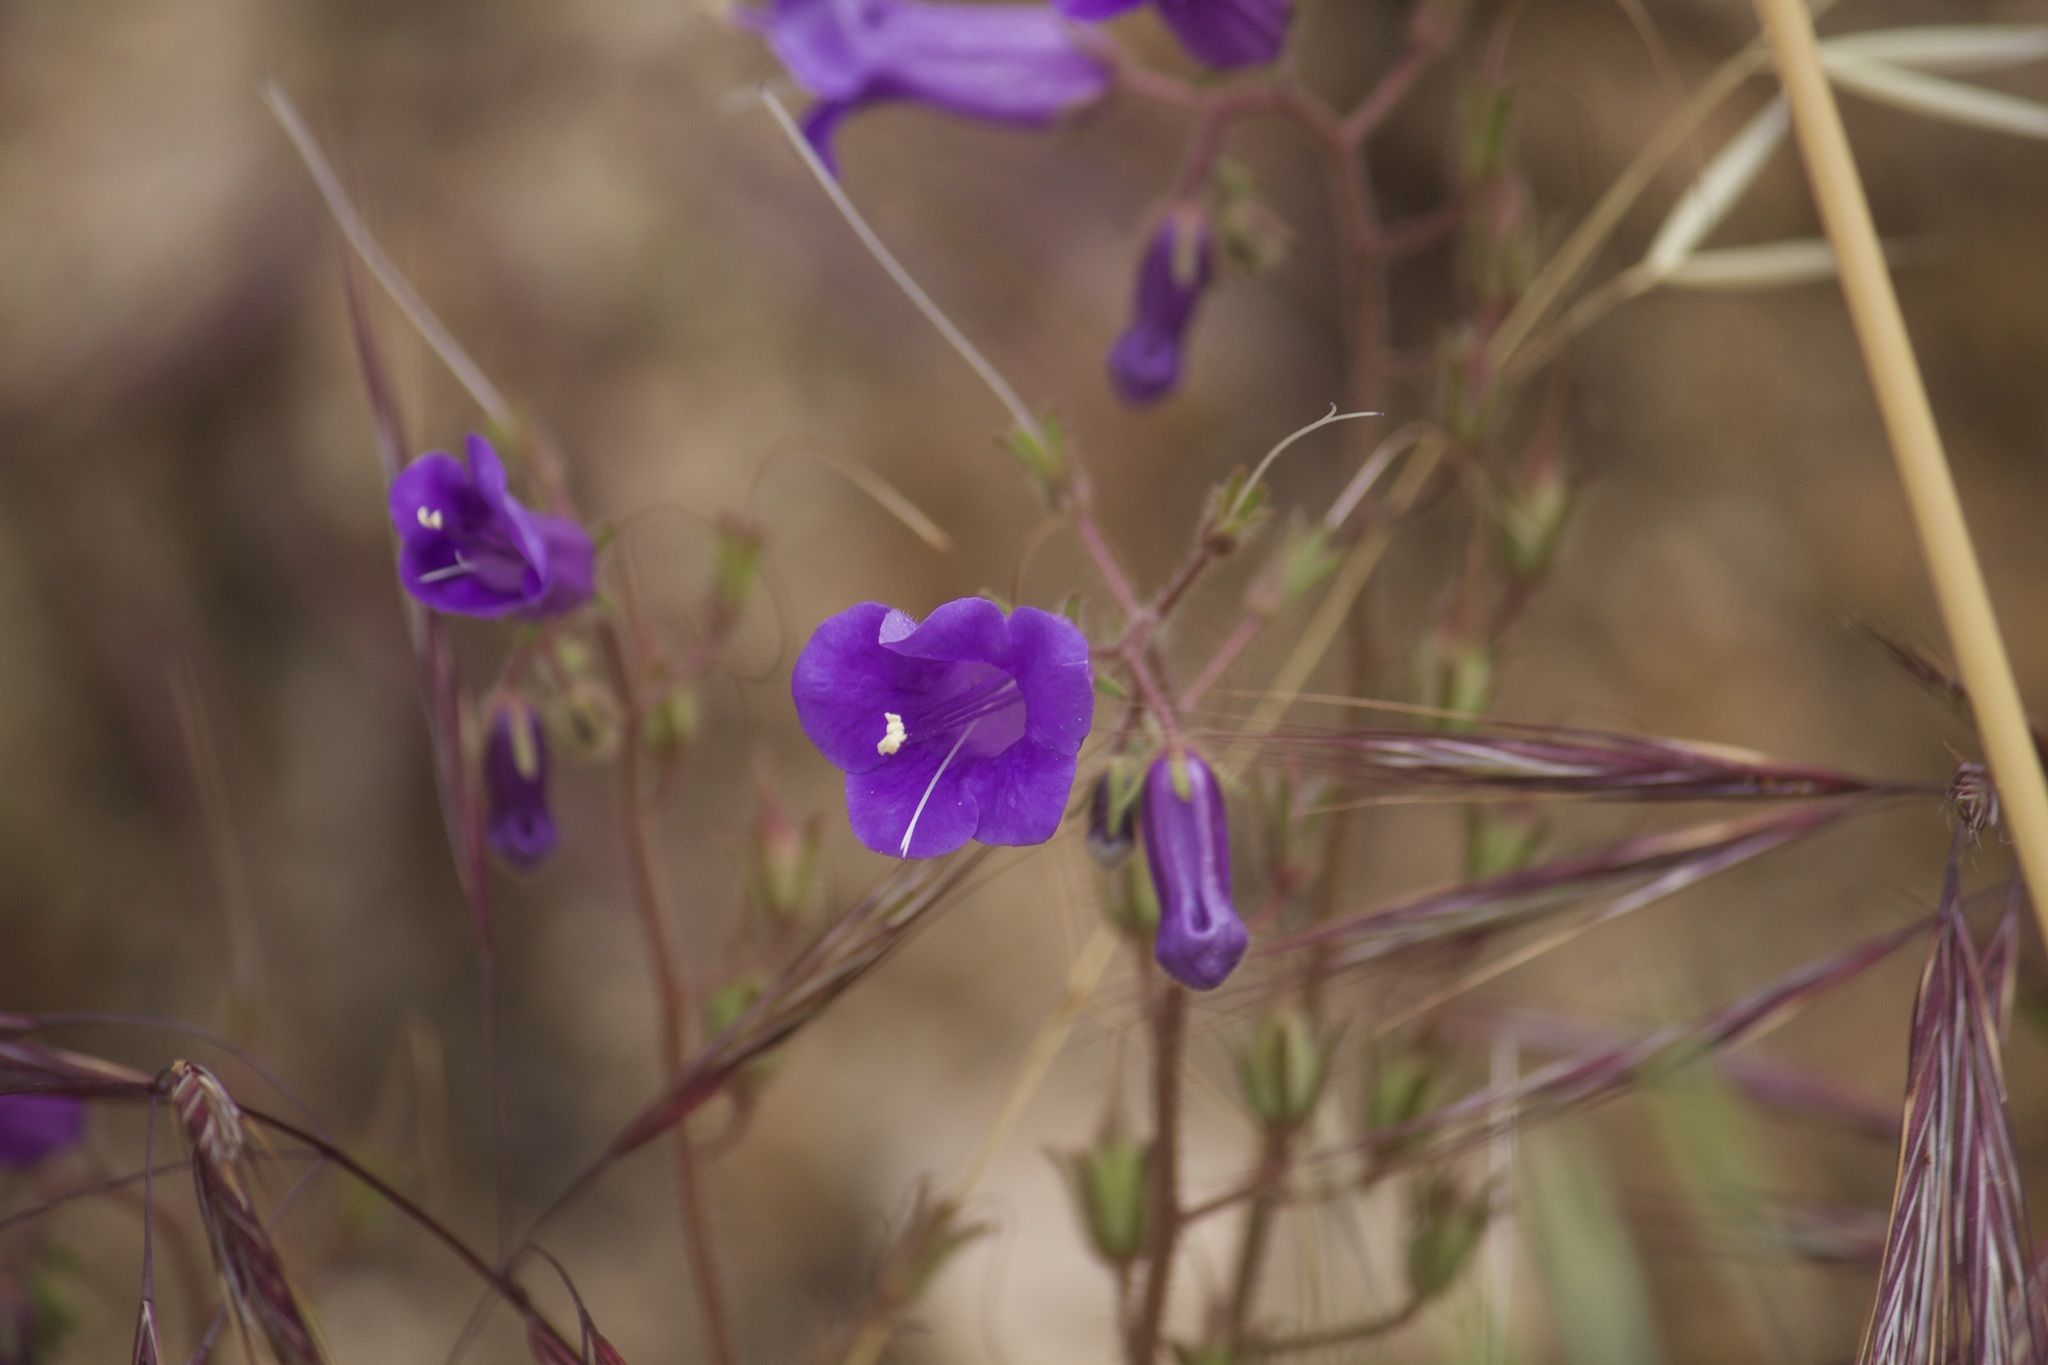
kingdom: Plantae
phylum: Tracheophyta
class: Magnoliopsida
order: Boraginales
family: Hydrophyllaceae
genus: Phacelia
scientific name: Phacelia minor
